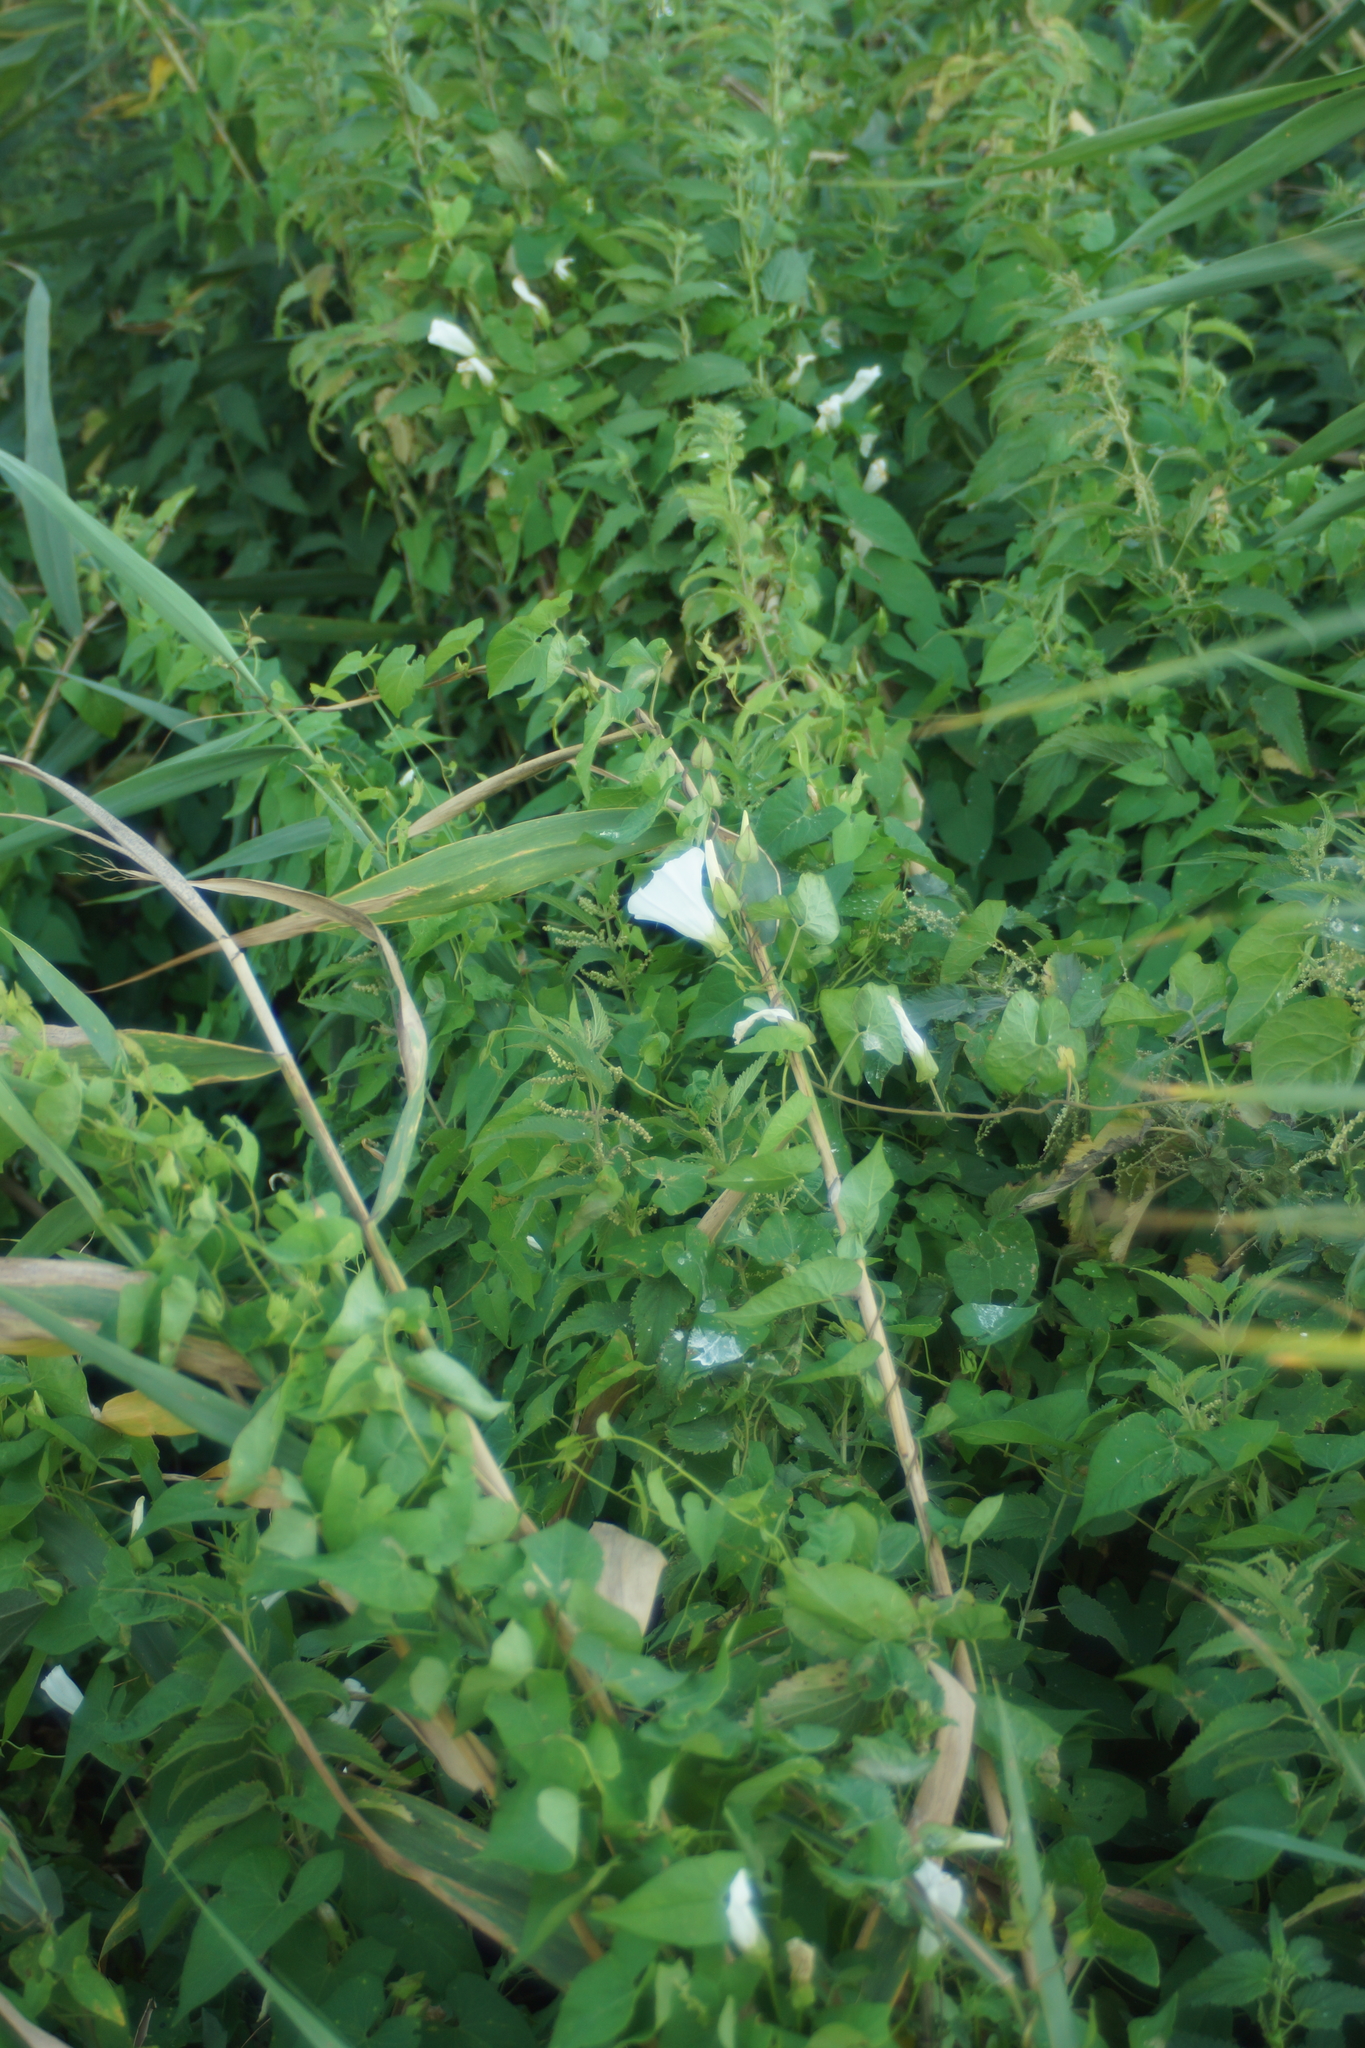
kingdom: Plantae
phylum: Tracheophyta
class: Magnoliopsida
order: Solanales
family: Convolvulaceae
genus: Calystegia
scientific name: Calystegia sepium
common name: Hedge bindweed
